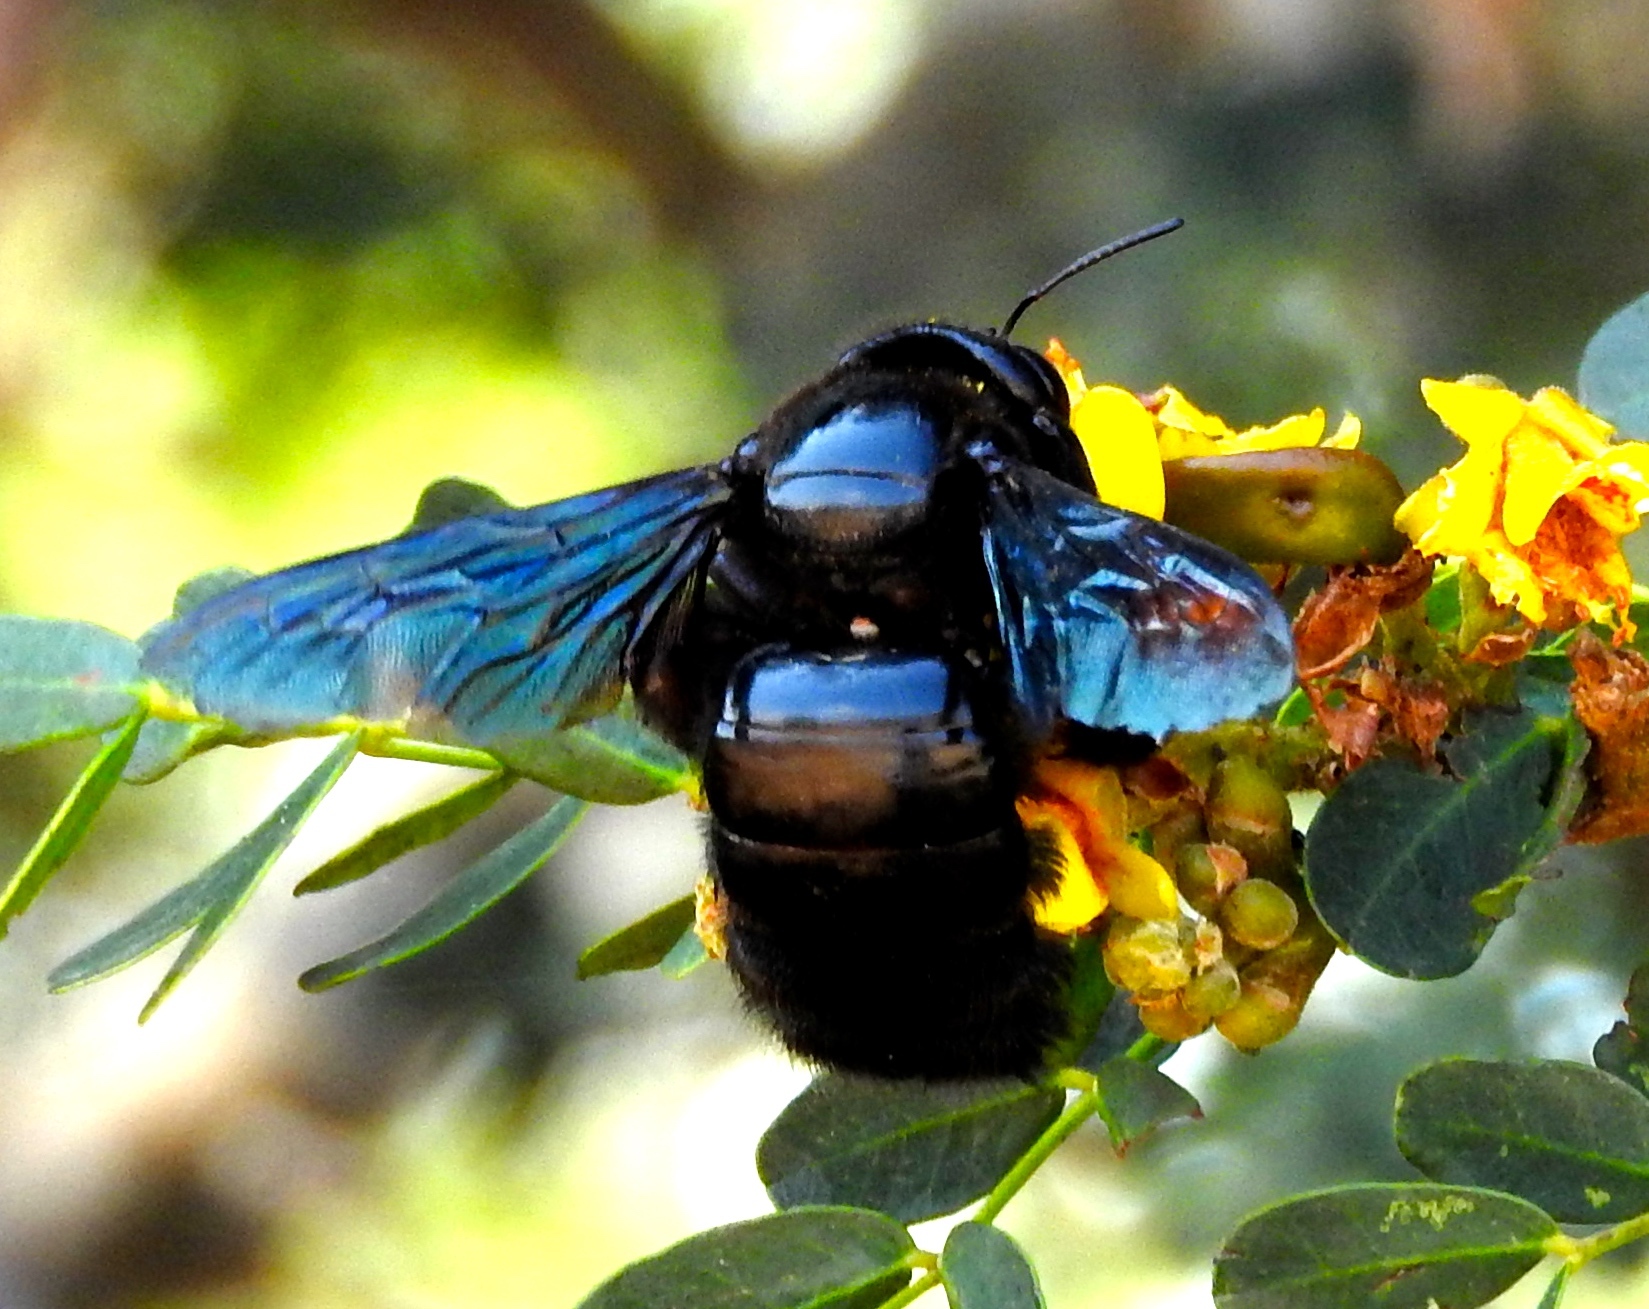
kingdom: Animalia
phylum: Arthropoda
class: Insecta
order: Hymenoptera
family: Apidae
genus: Xylocopa
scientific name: Xylocopa fimbriata
